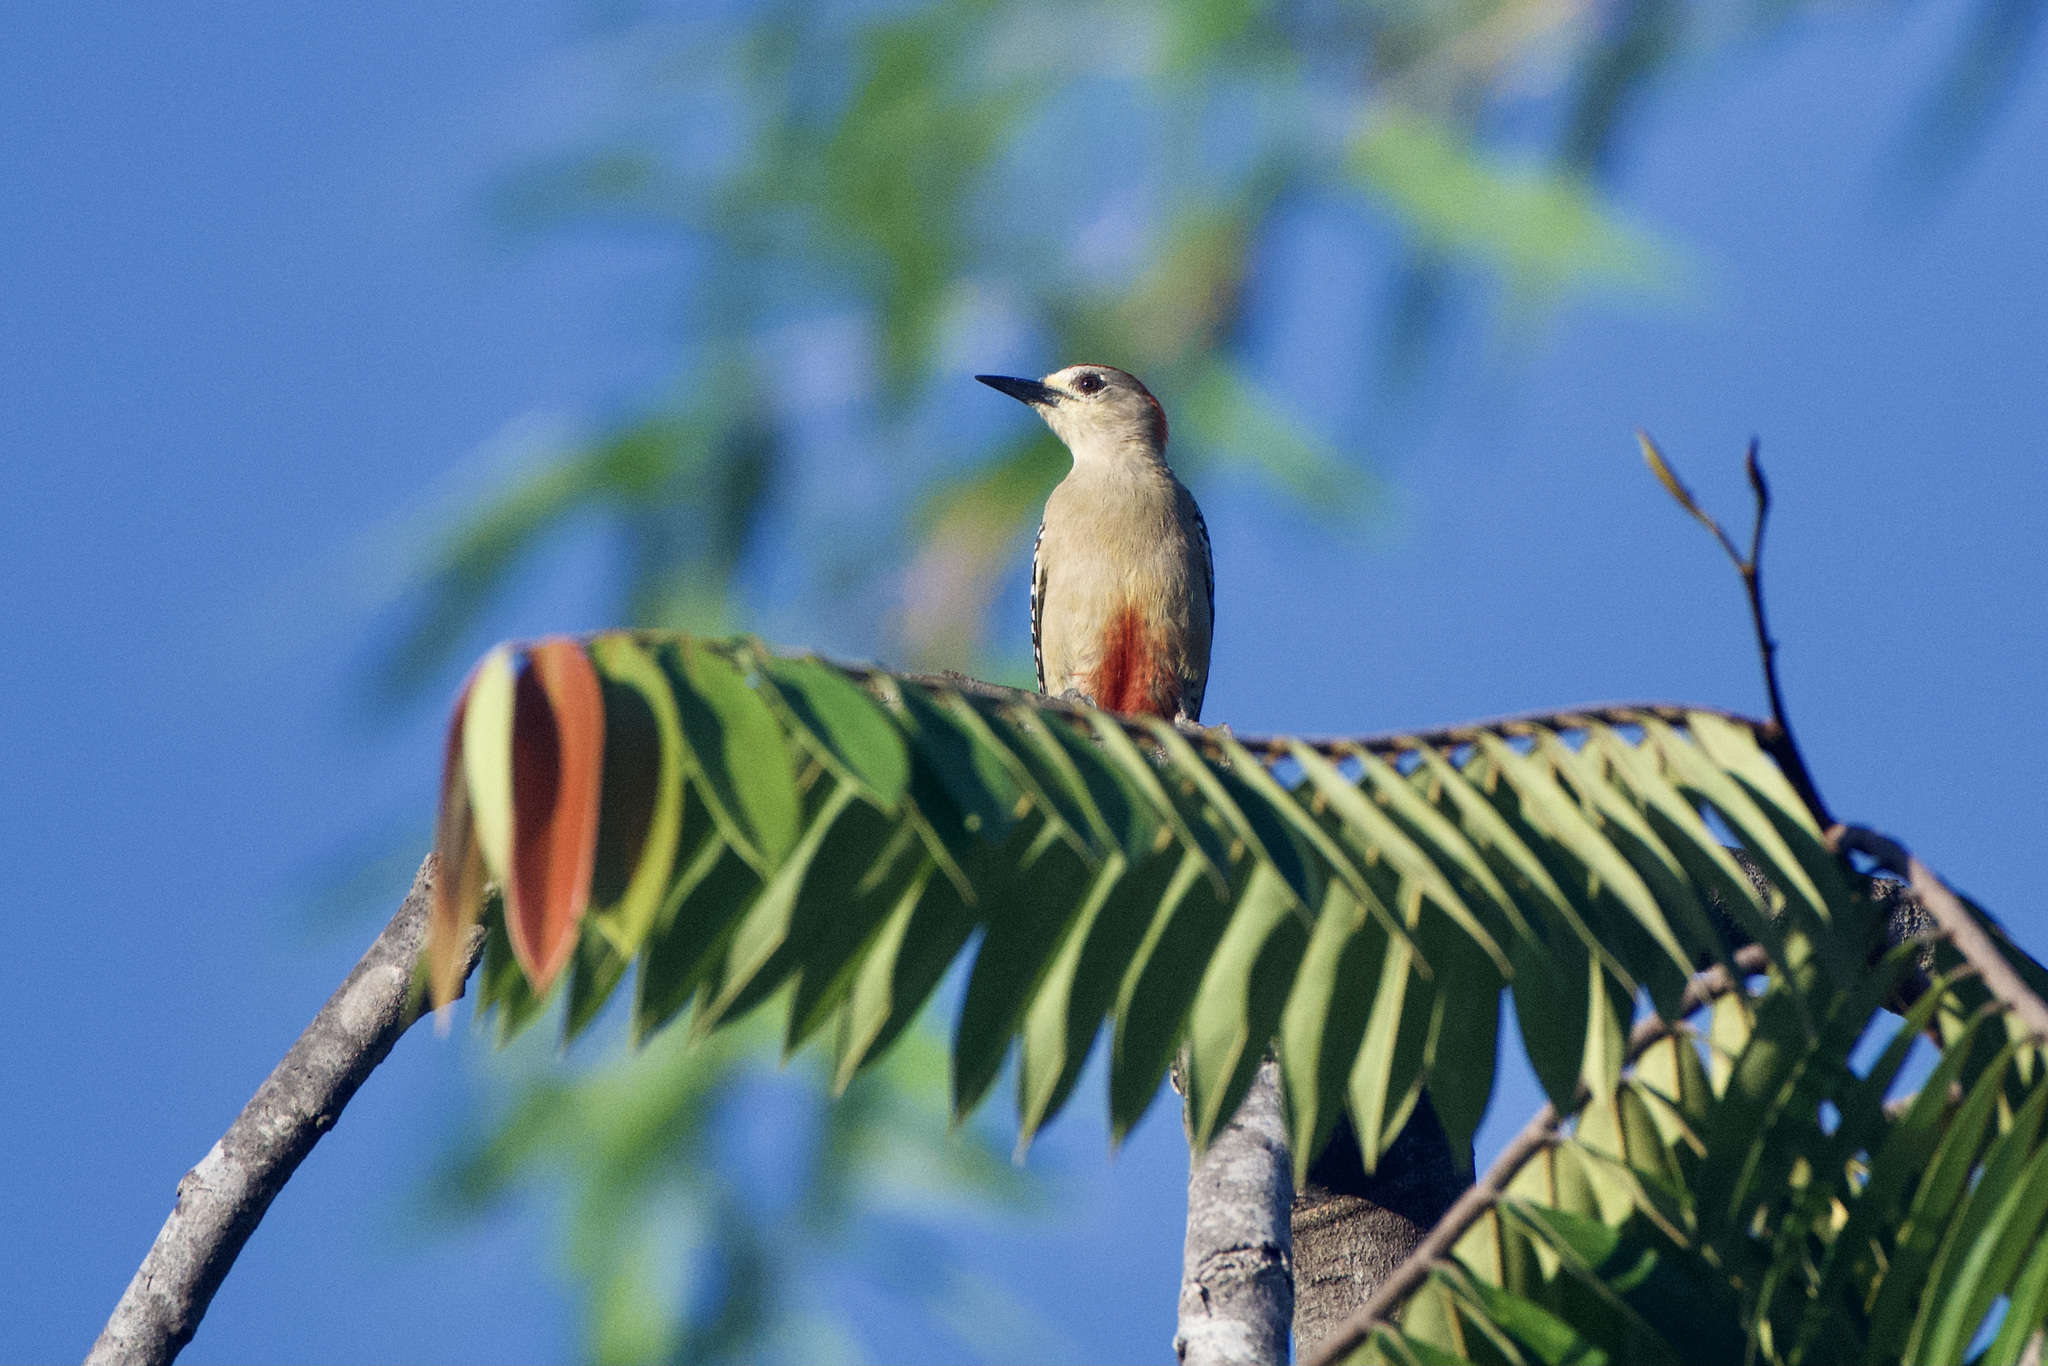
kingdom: Animalia
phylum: Chordata
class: Aves
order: Piciformes
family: Picidae
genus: Melanerpes
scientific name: Melanerpes rubricapillus
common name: Red-crowned woodpecker
